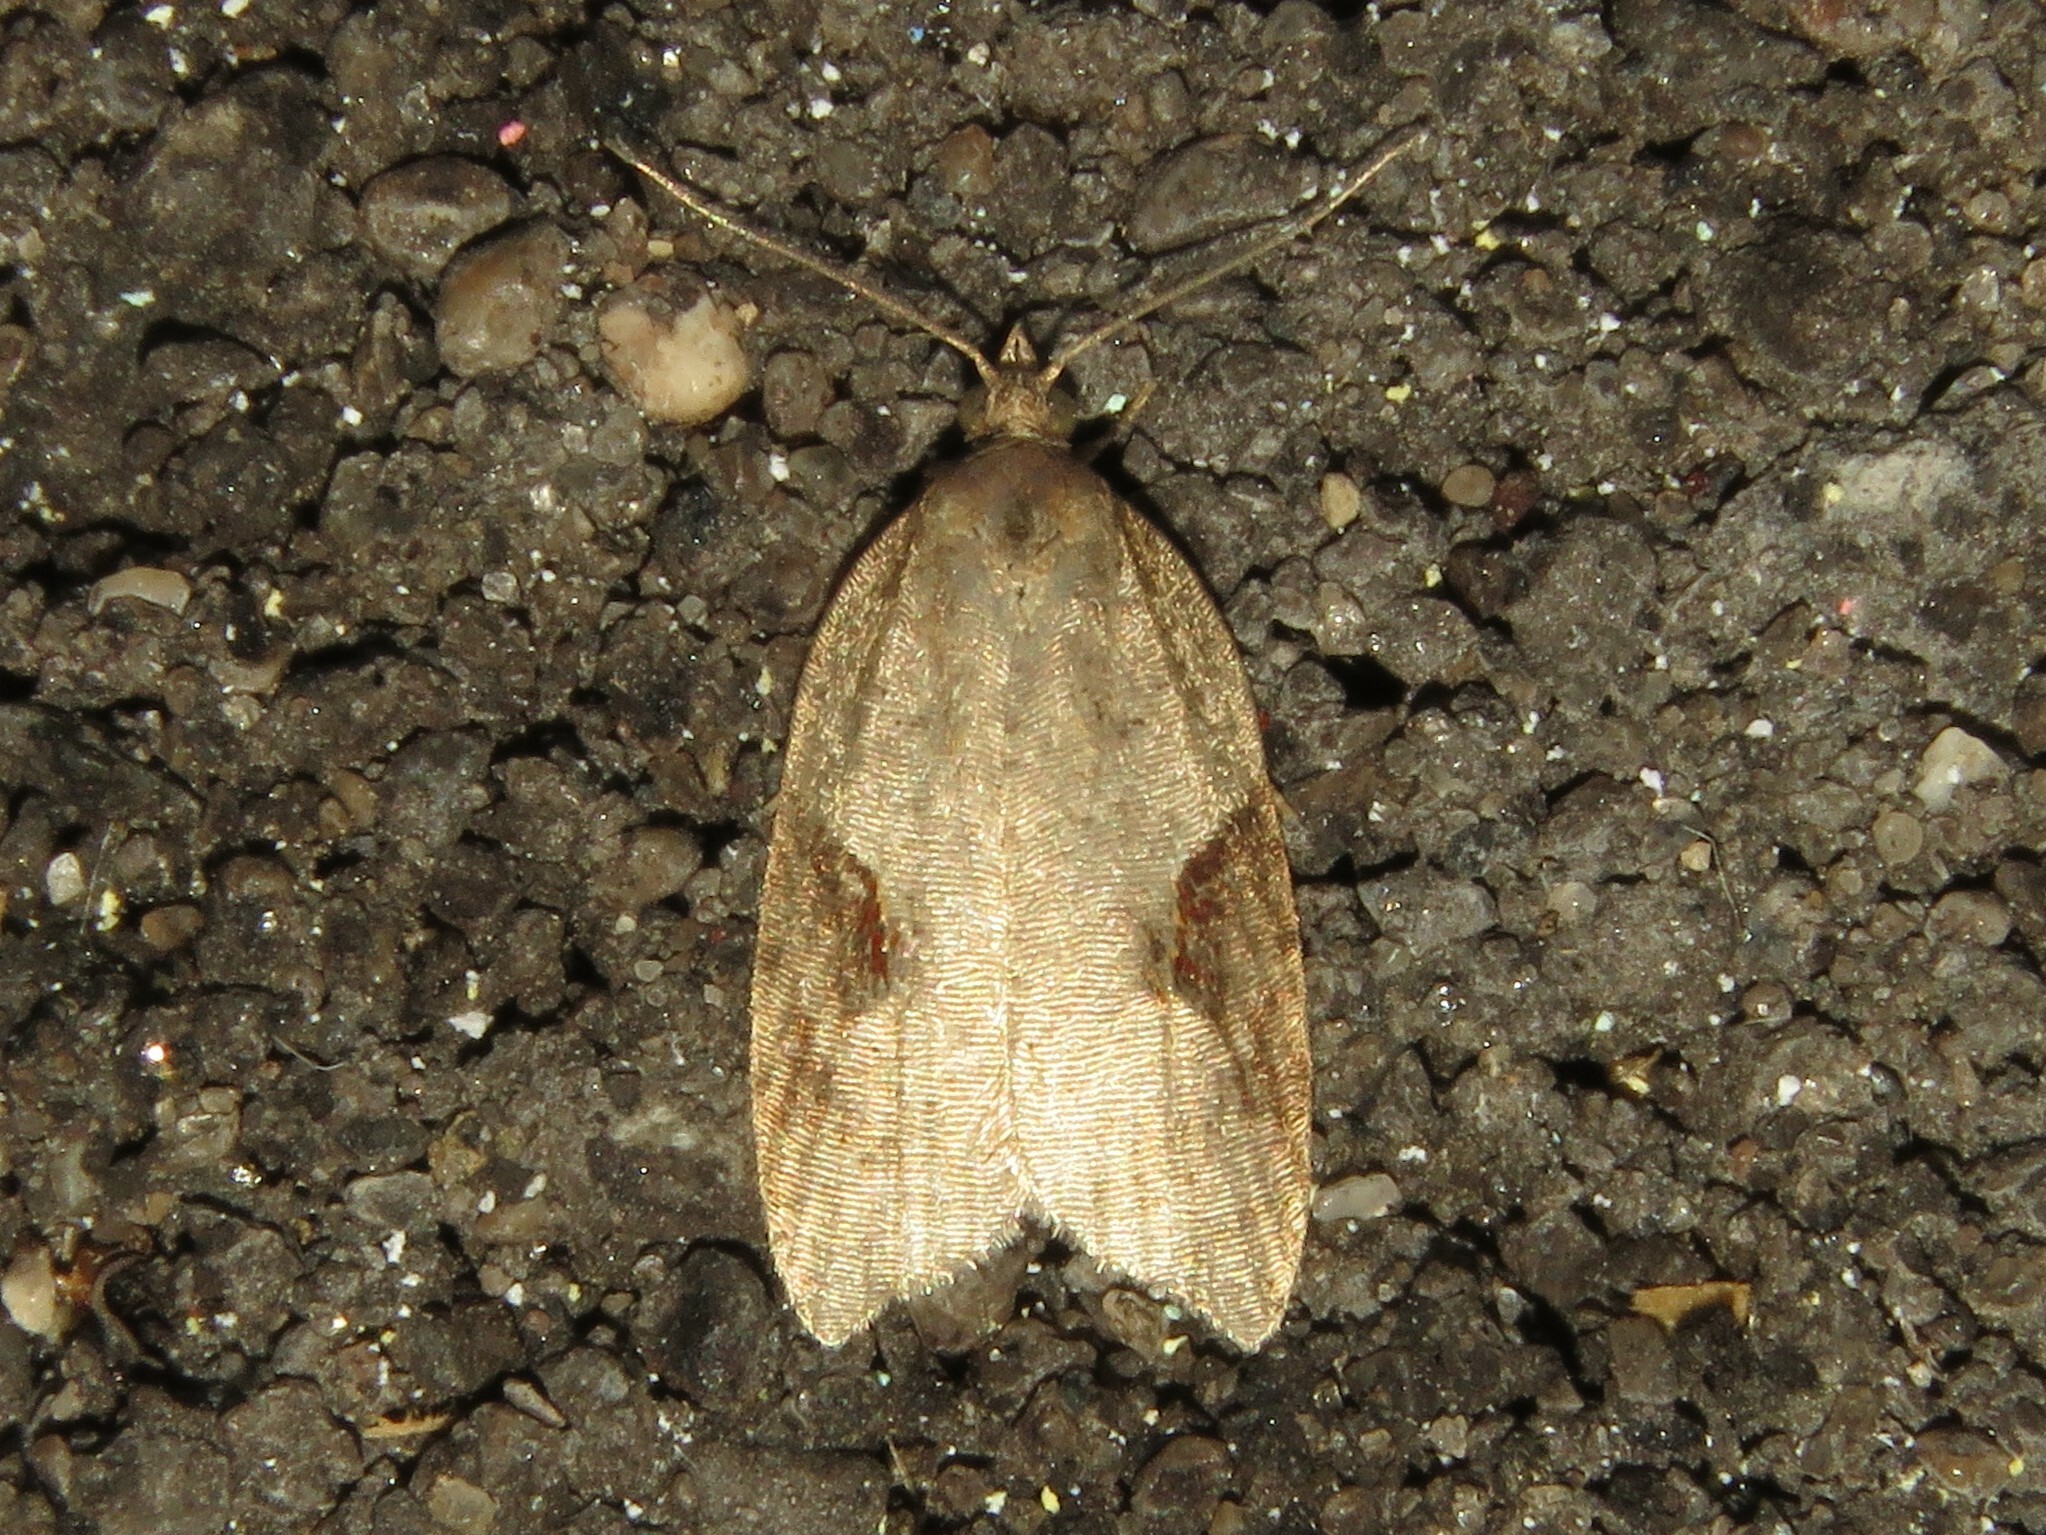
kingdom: Animalia
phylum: Arthropoda
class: Insecta
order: Lepidoptera
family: Tortricidae
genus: Acleris
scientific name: Acleris macdunnoughi
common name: Macdunnough's acleris
